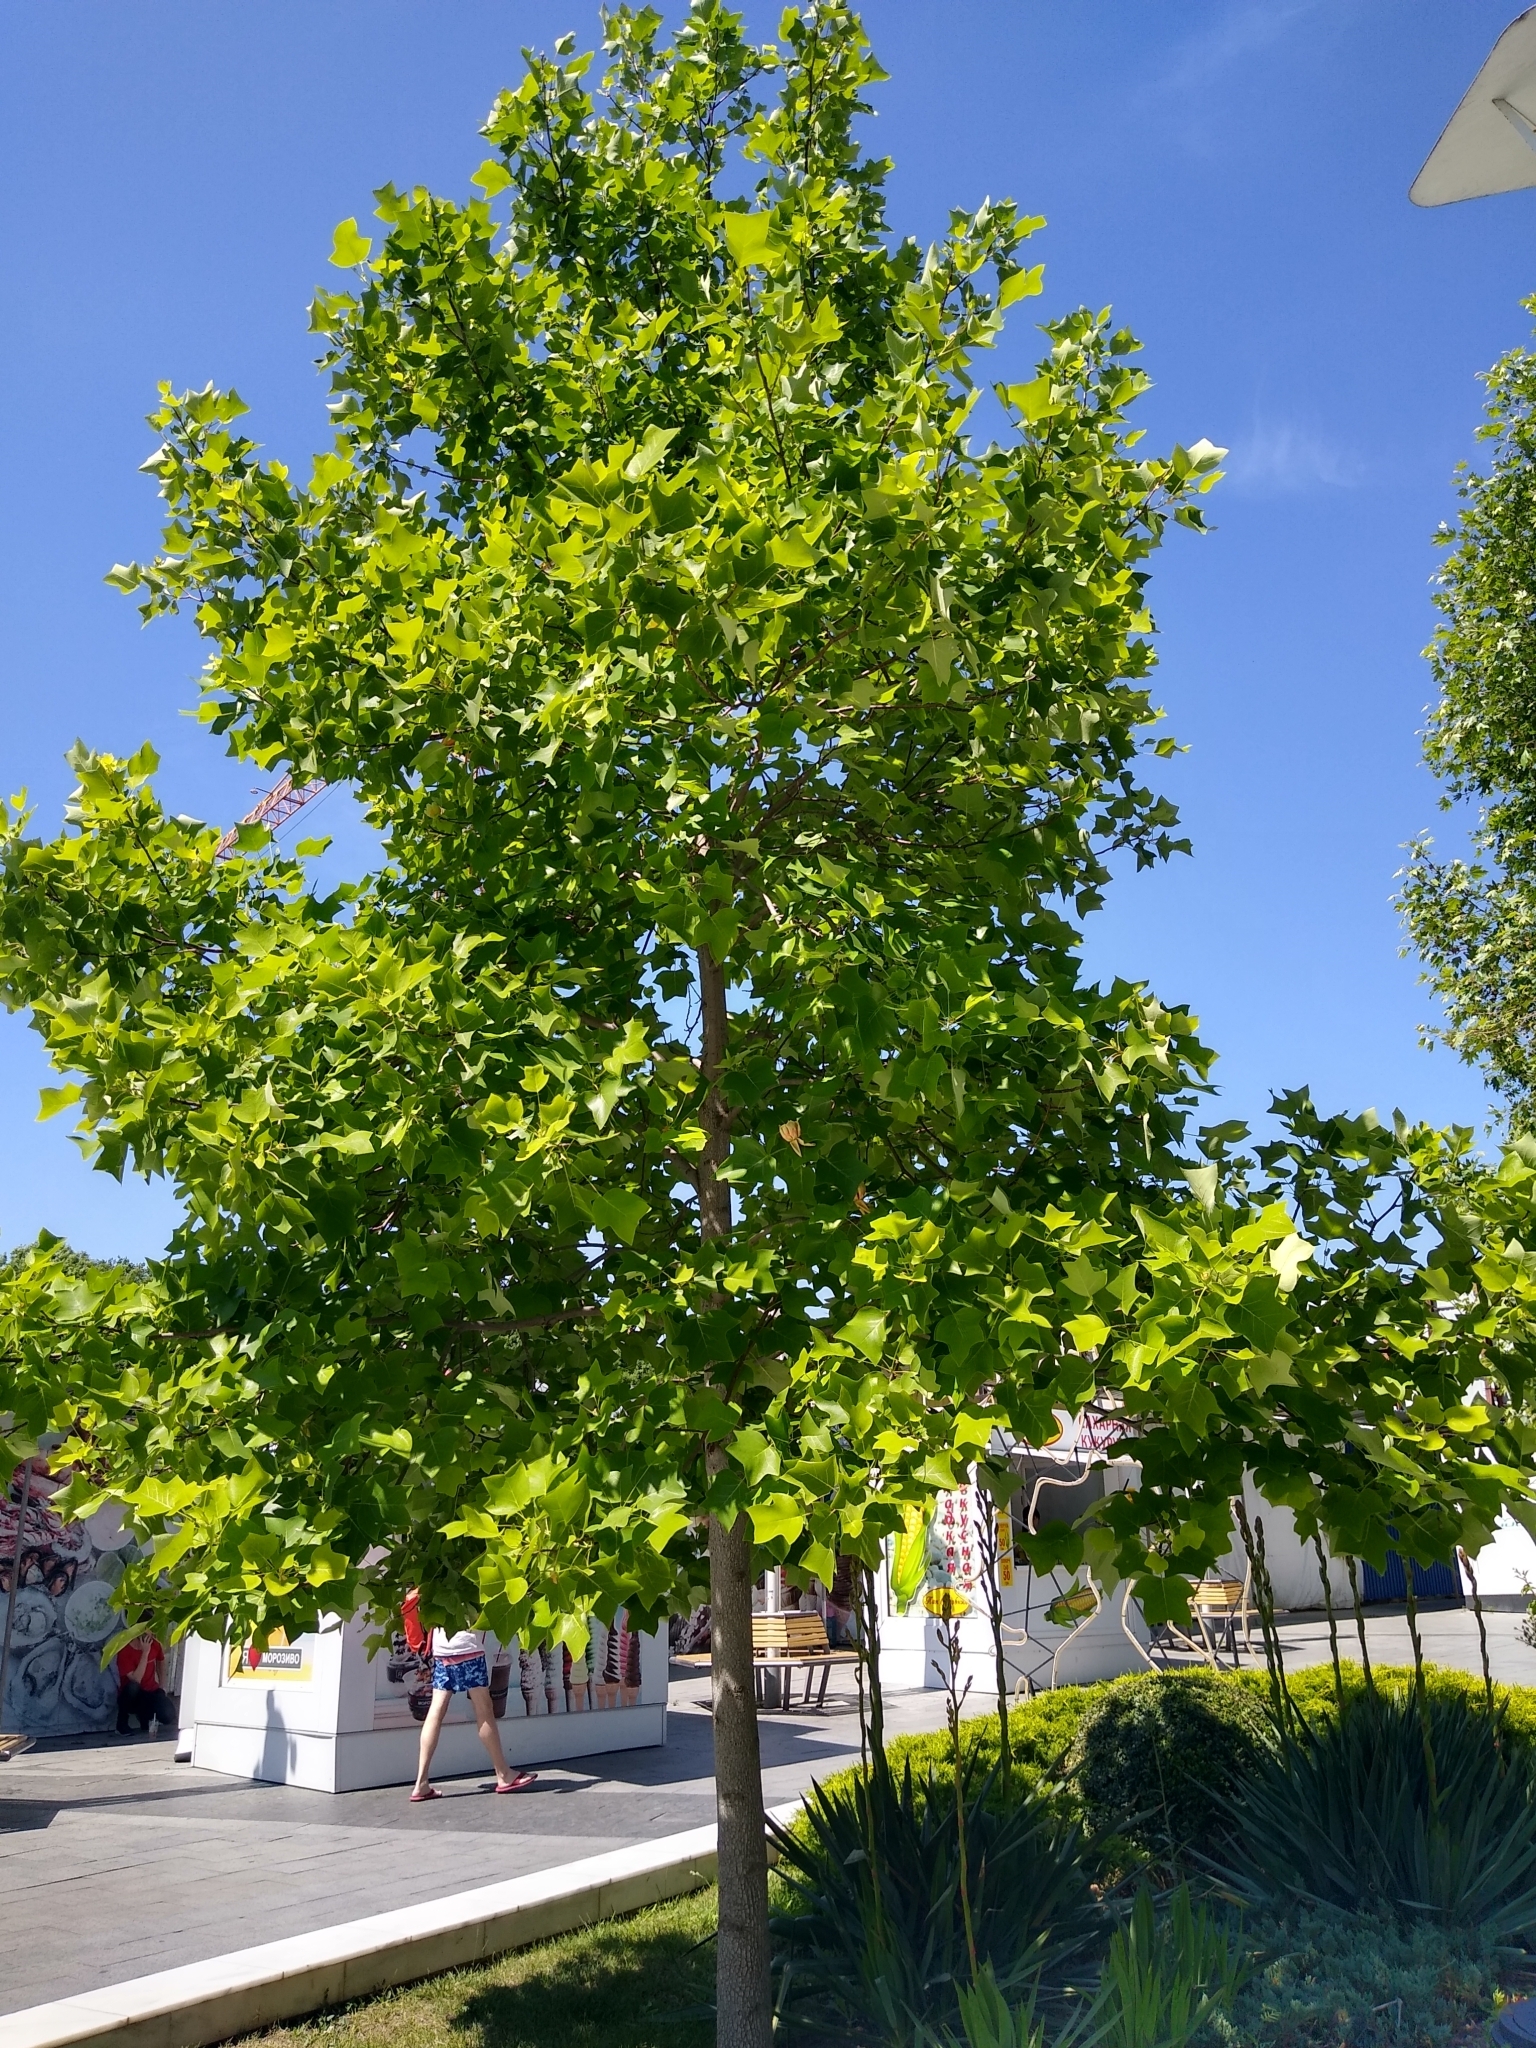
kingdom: Plantae
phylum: Tracheophyta
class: Magnoliopsida
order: Magnoliales
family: Magnoliaceae
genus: Liriodendron
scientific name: Liriodendron tulipifera
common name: Tulip tree
